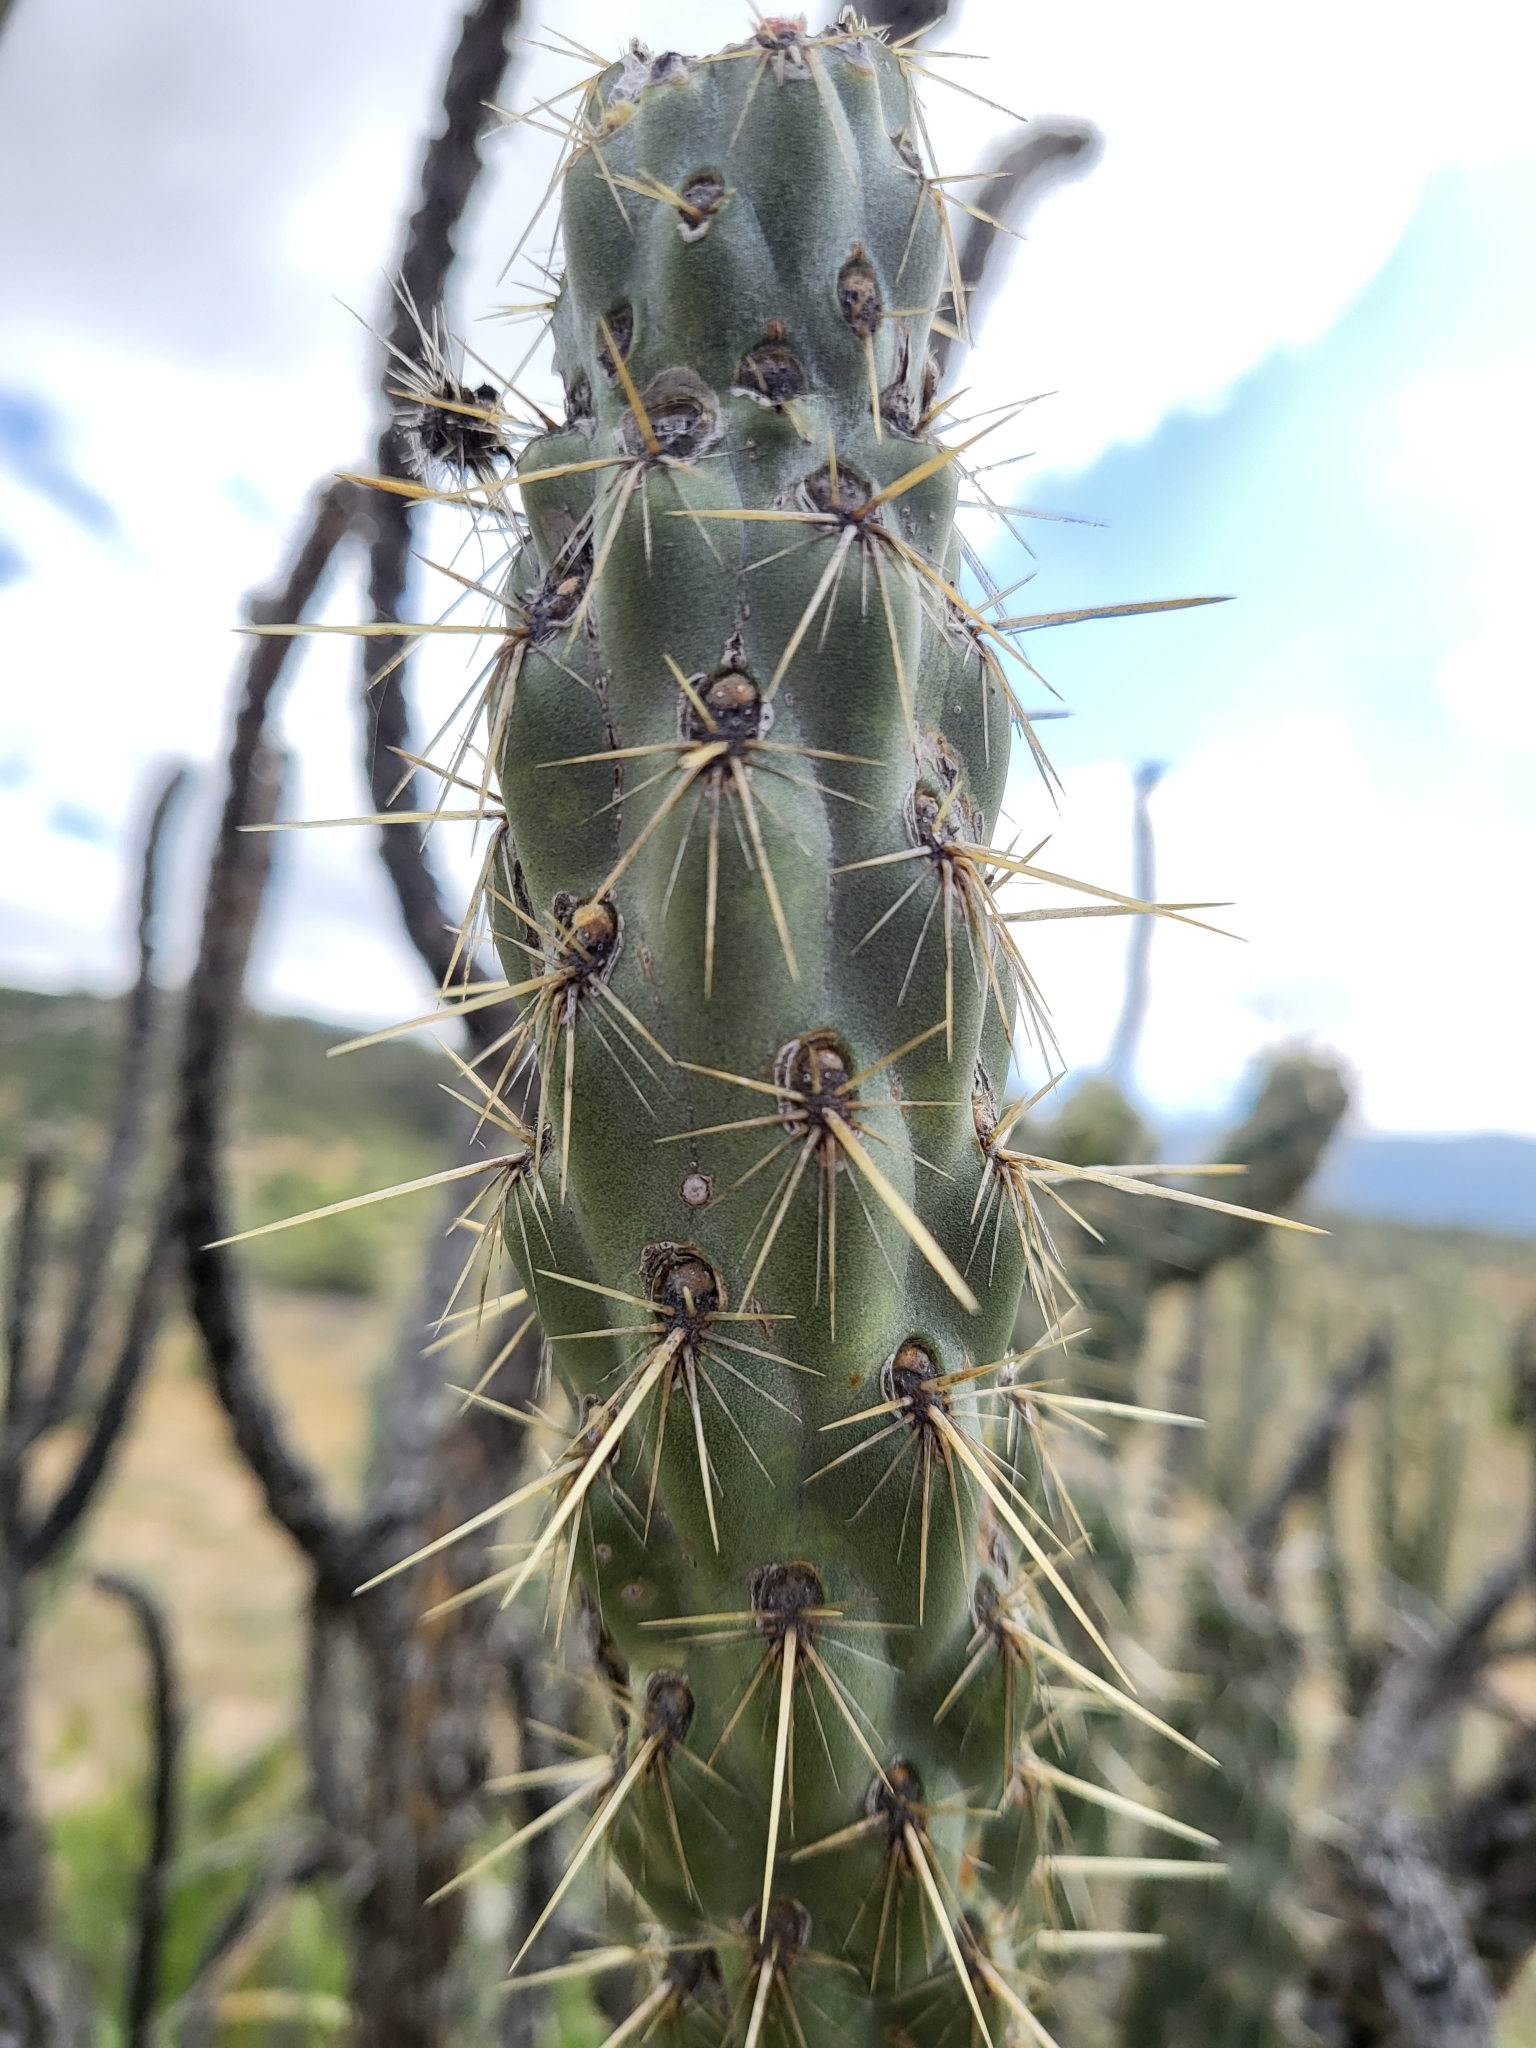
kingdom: Plantae
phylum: Tracheophyta
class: Magnoliopsida
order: Caryophyllales
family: Cactaceae
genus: Cylindropuntia
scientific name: Cylindropuntia bernardina
